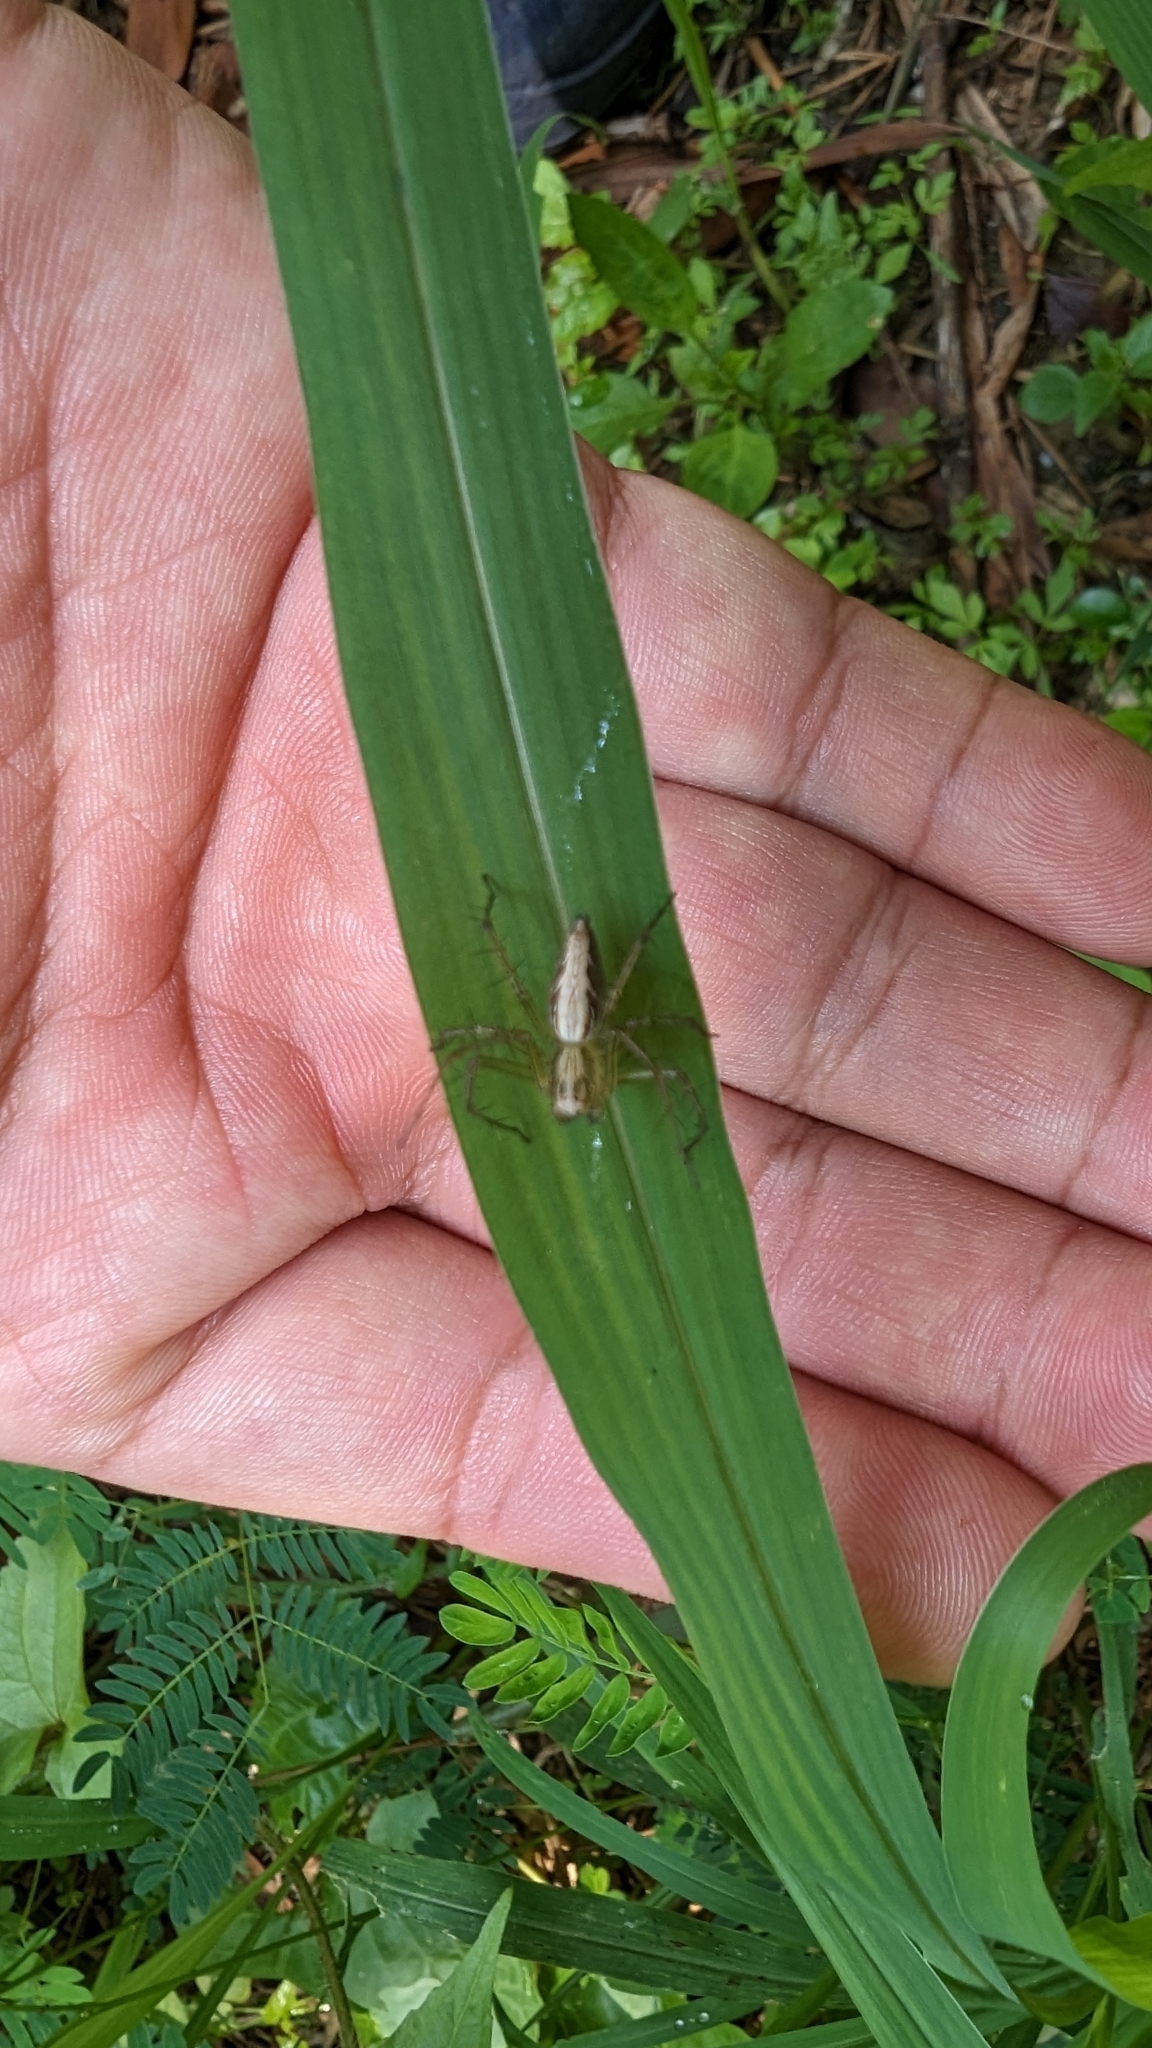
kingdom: Animalia
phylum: Arthropoda
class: Arachnida
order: Araneae
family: Oxyopidae
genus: Oxyopes
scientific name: Oxyopes sertatus
